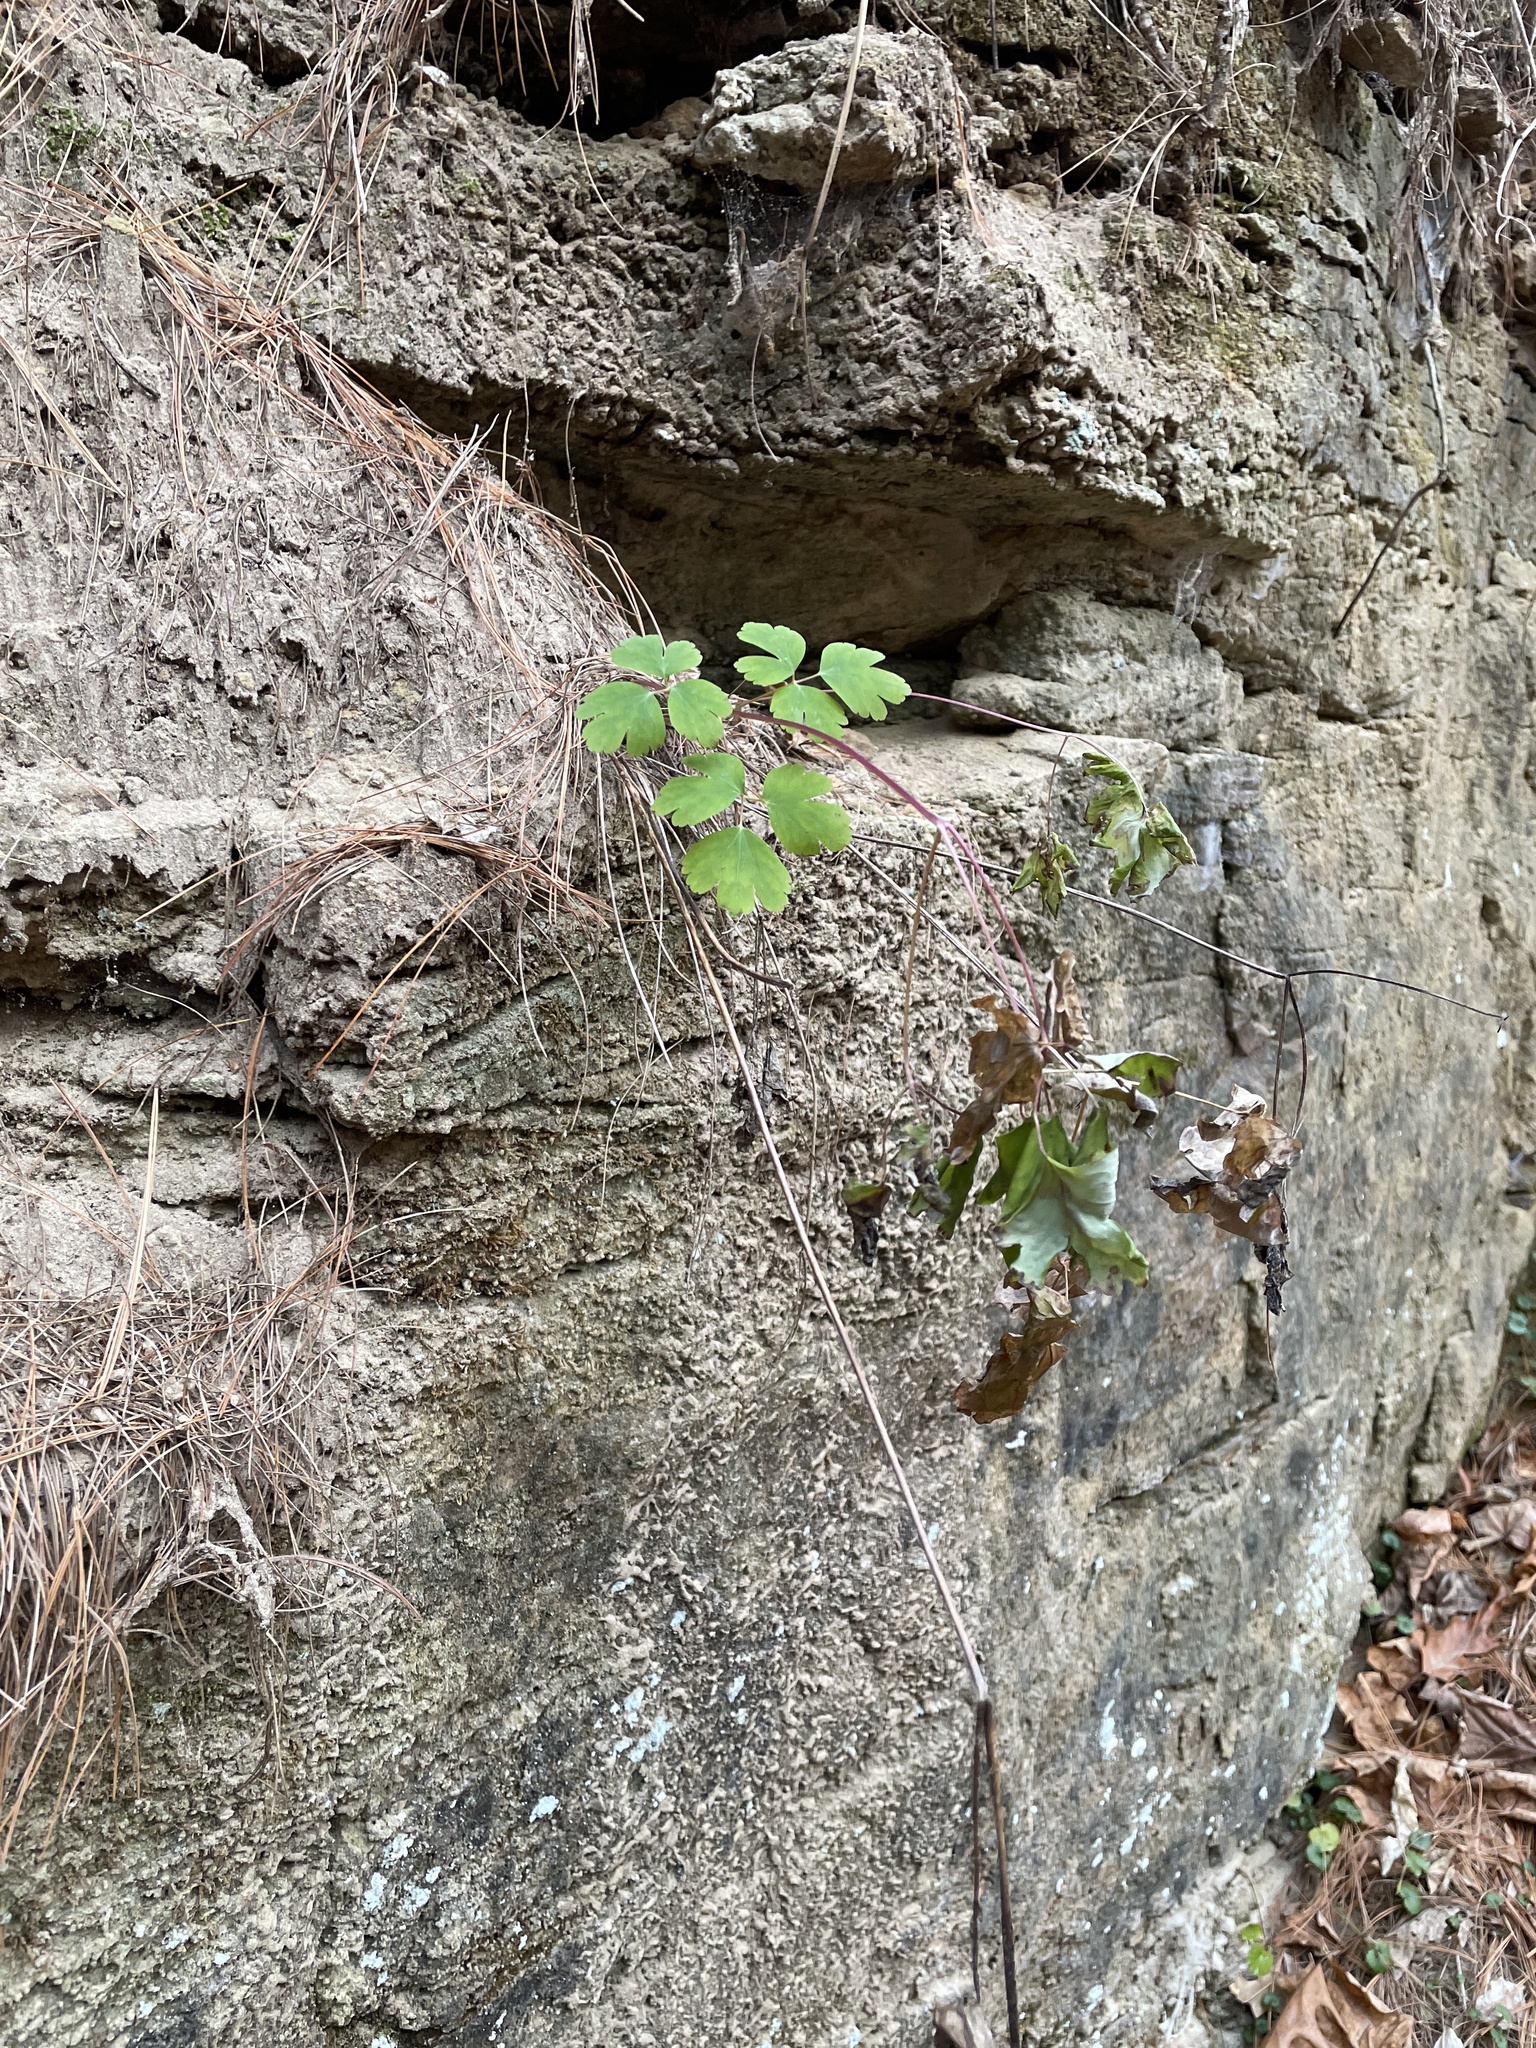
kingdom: Plantae
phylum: Tracheophyta
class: Magnoliopsida
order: Ranunculales
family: Ranunculaceae
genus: Thalictrum
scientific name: Thalictrum dioicum
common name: Early meadow-rue
